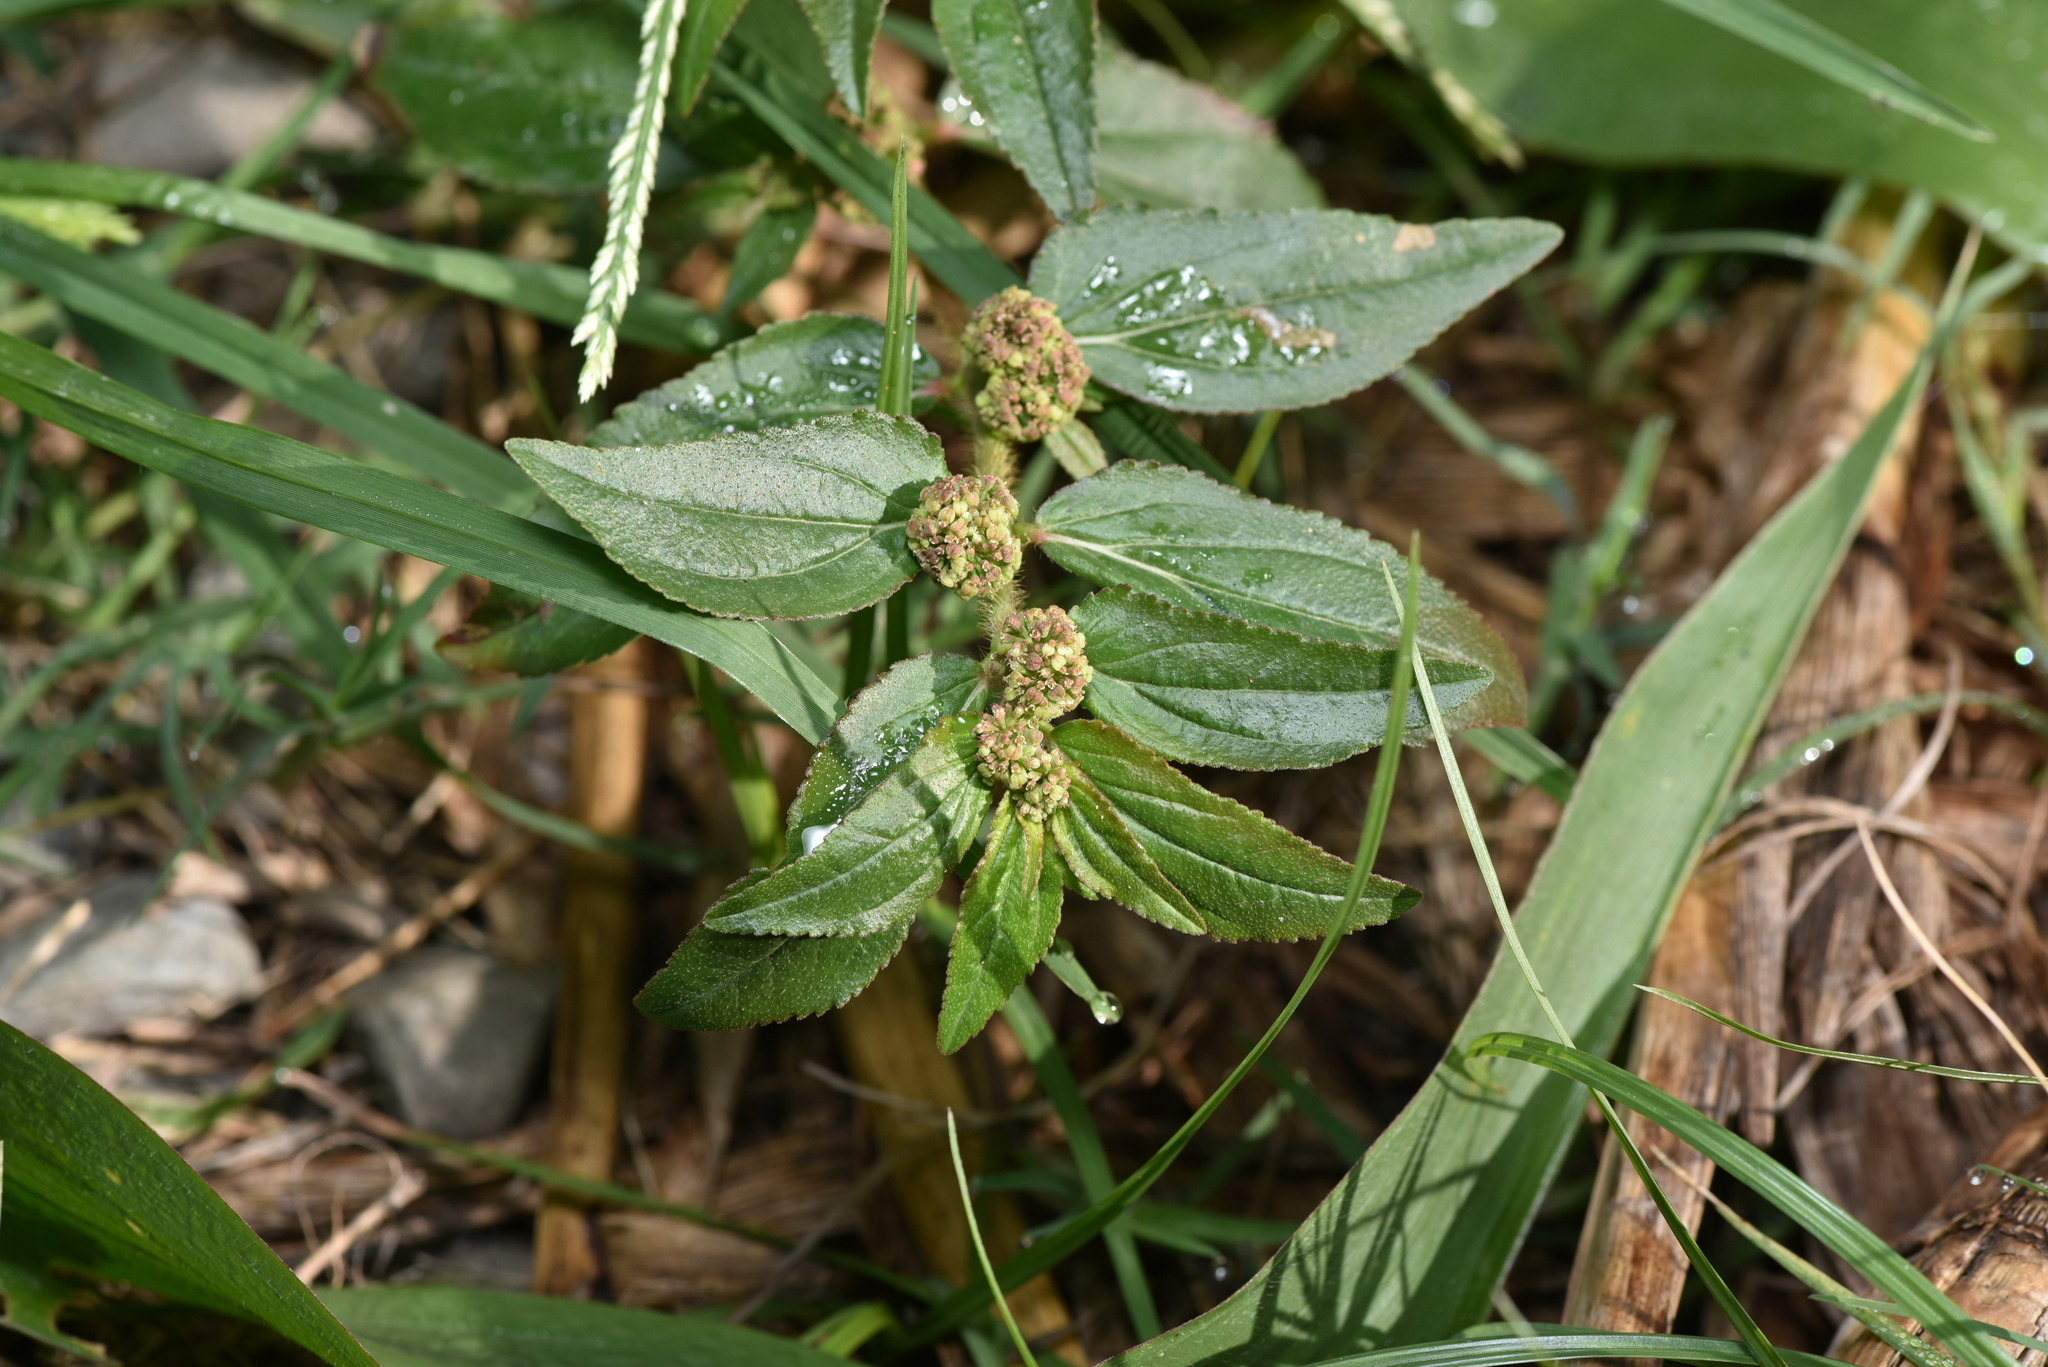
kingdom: Plantae
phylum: Tracheophyta
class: Magnoliopsida
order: Malpighiales
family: Euphorbiaceae
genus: Euphorbia
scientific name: Euphorbia hirta
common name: Pillpod sandmat
